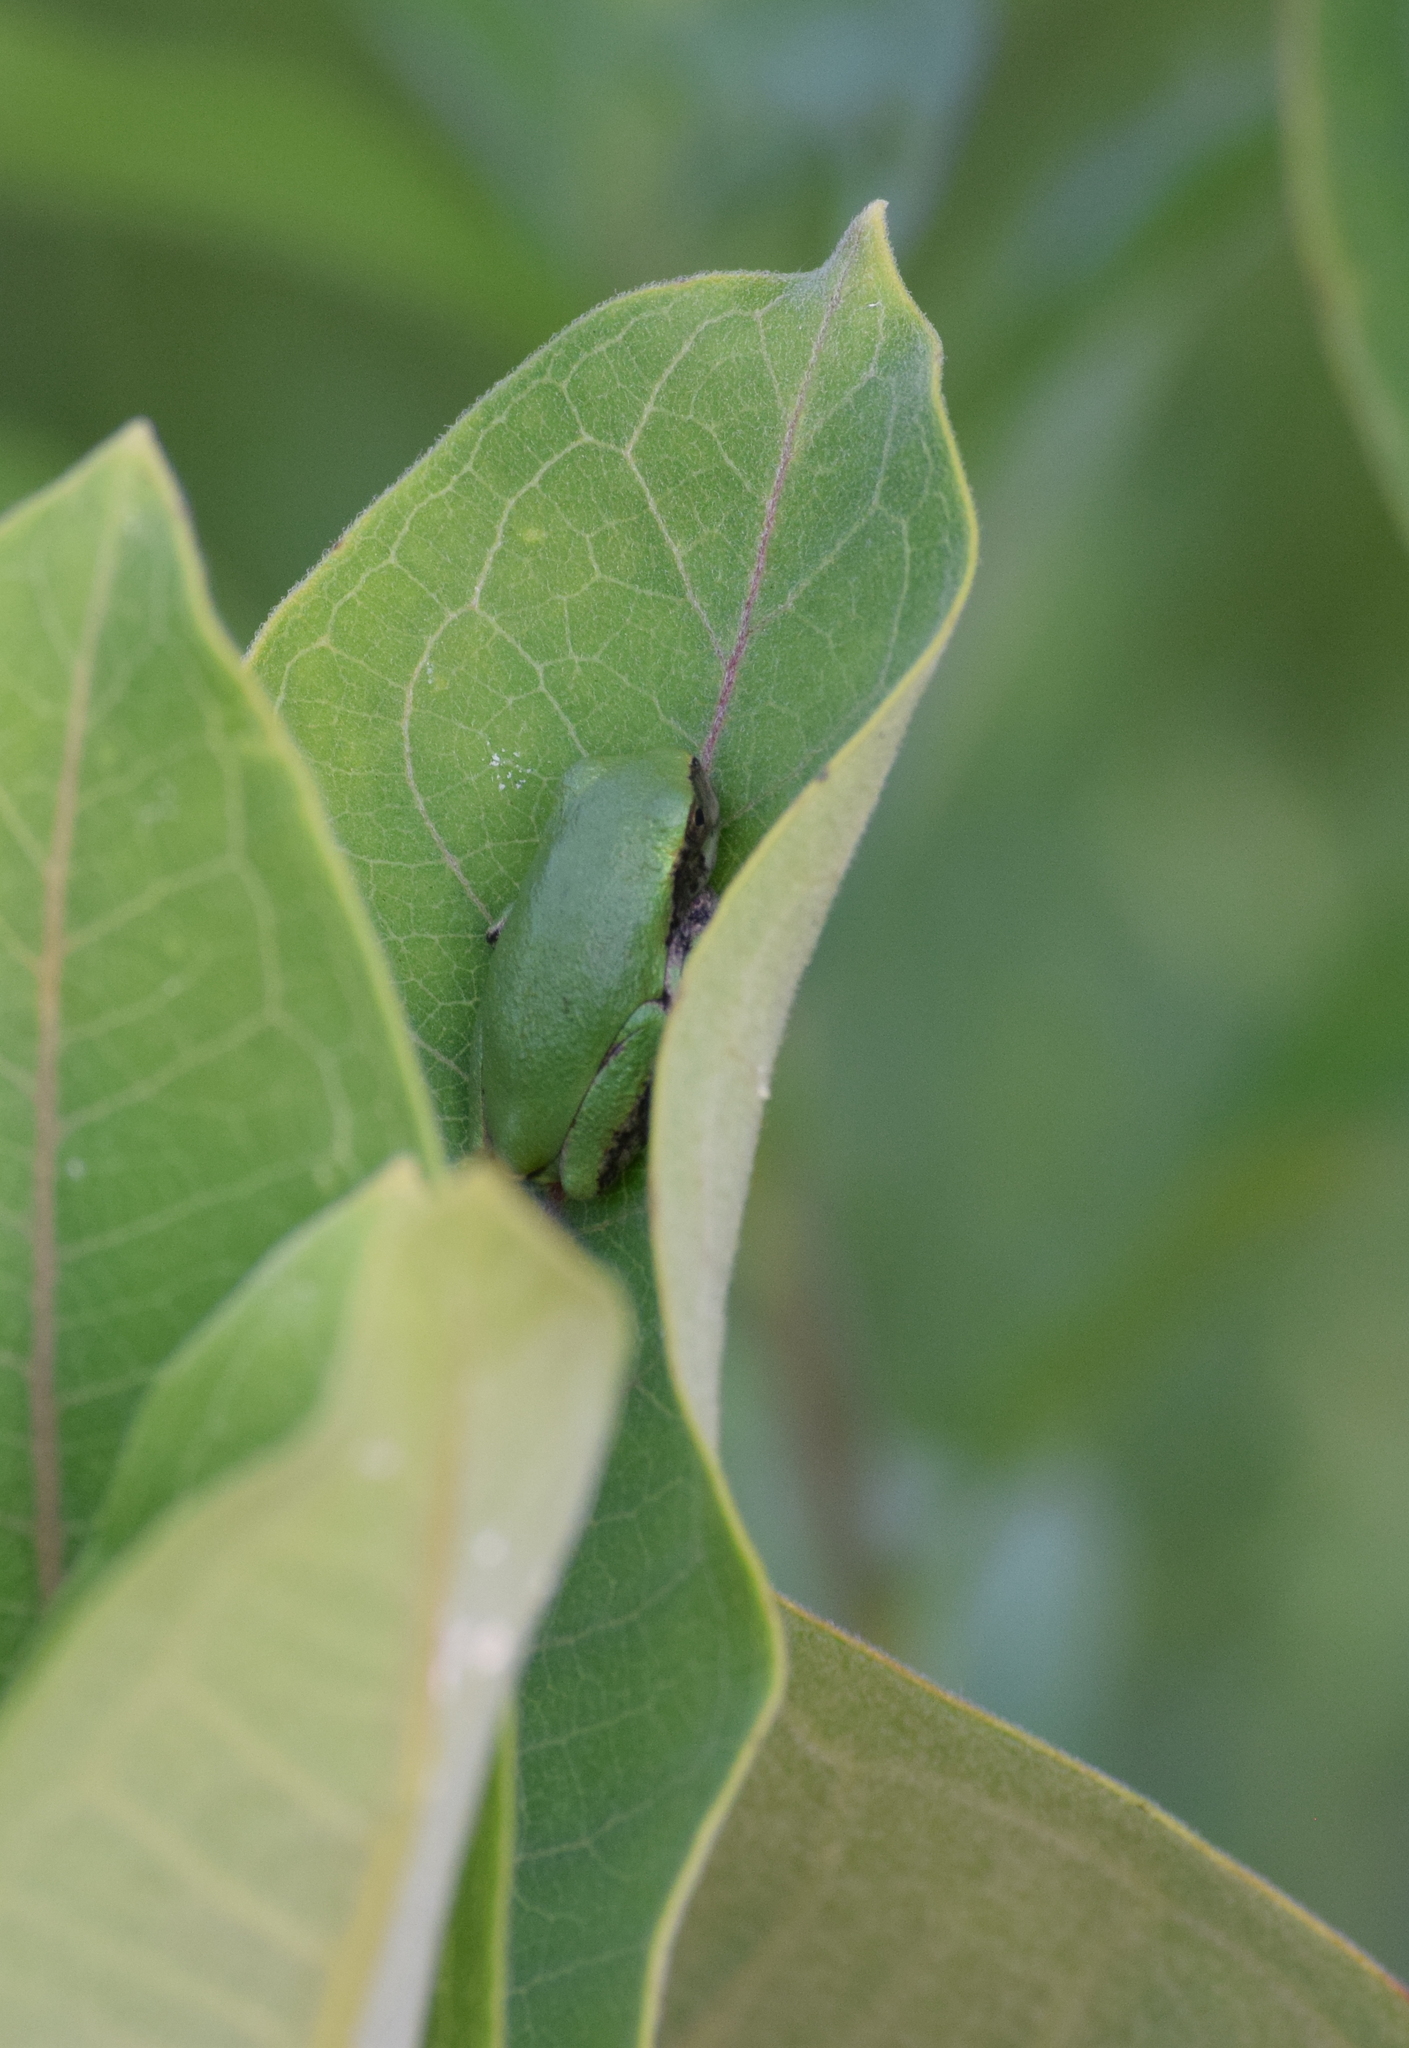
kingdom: Animalia
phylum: Chordata
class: Amphibia
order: Anura
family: Hylidae
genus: Hyla
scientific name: Hyla
